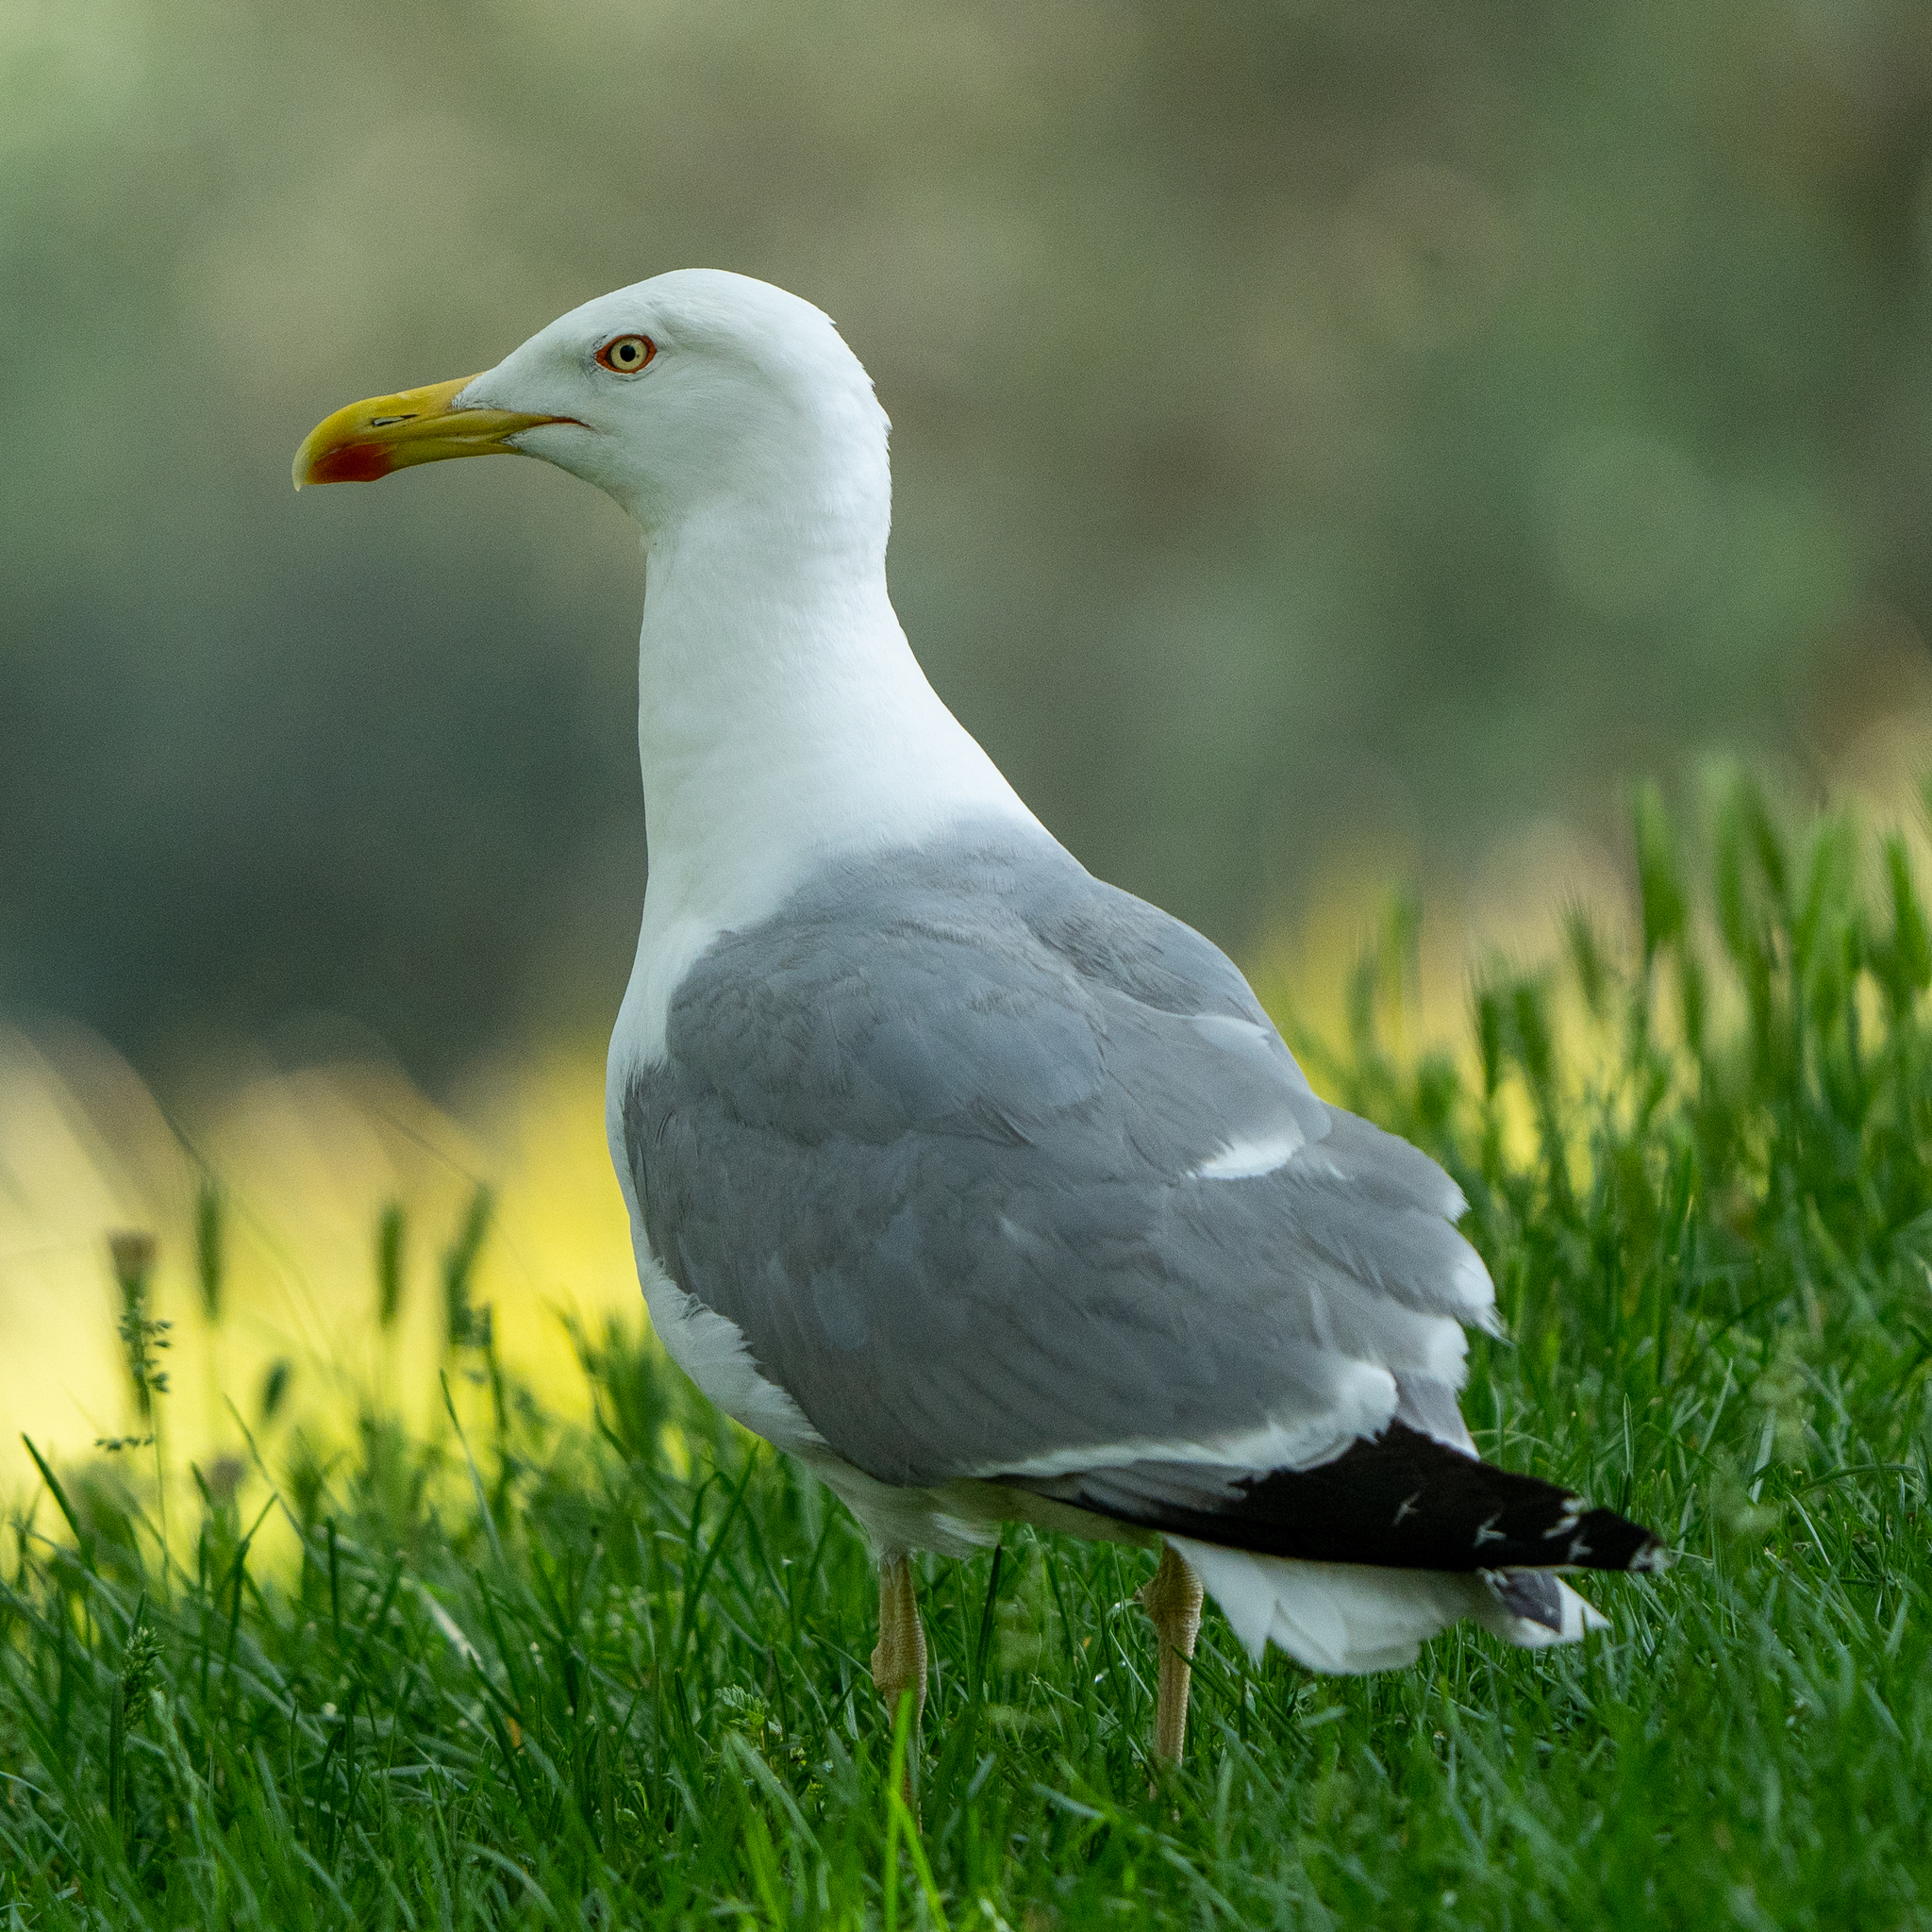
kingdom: Animalia
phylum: Chordata
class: Aves
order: Charadriiformes
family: Laridae
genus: Larus
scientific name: Larus michahellis
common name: Yellow-legged gull
